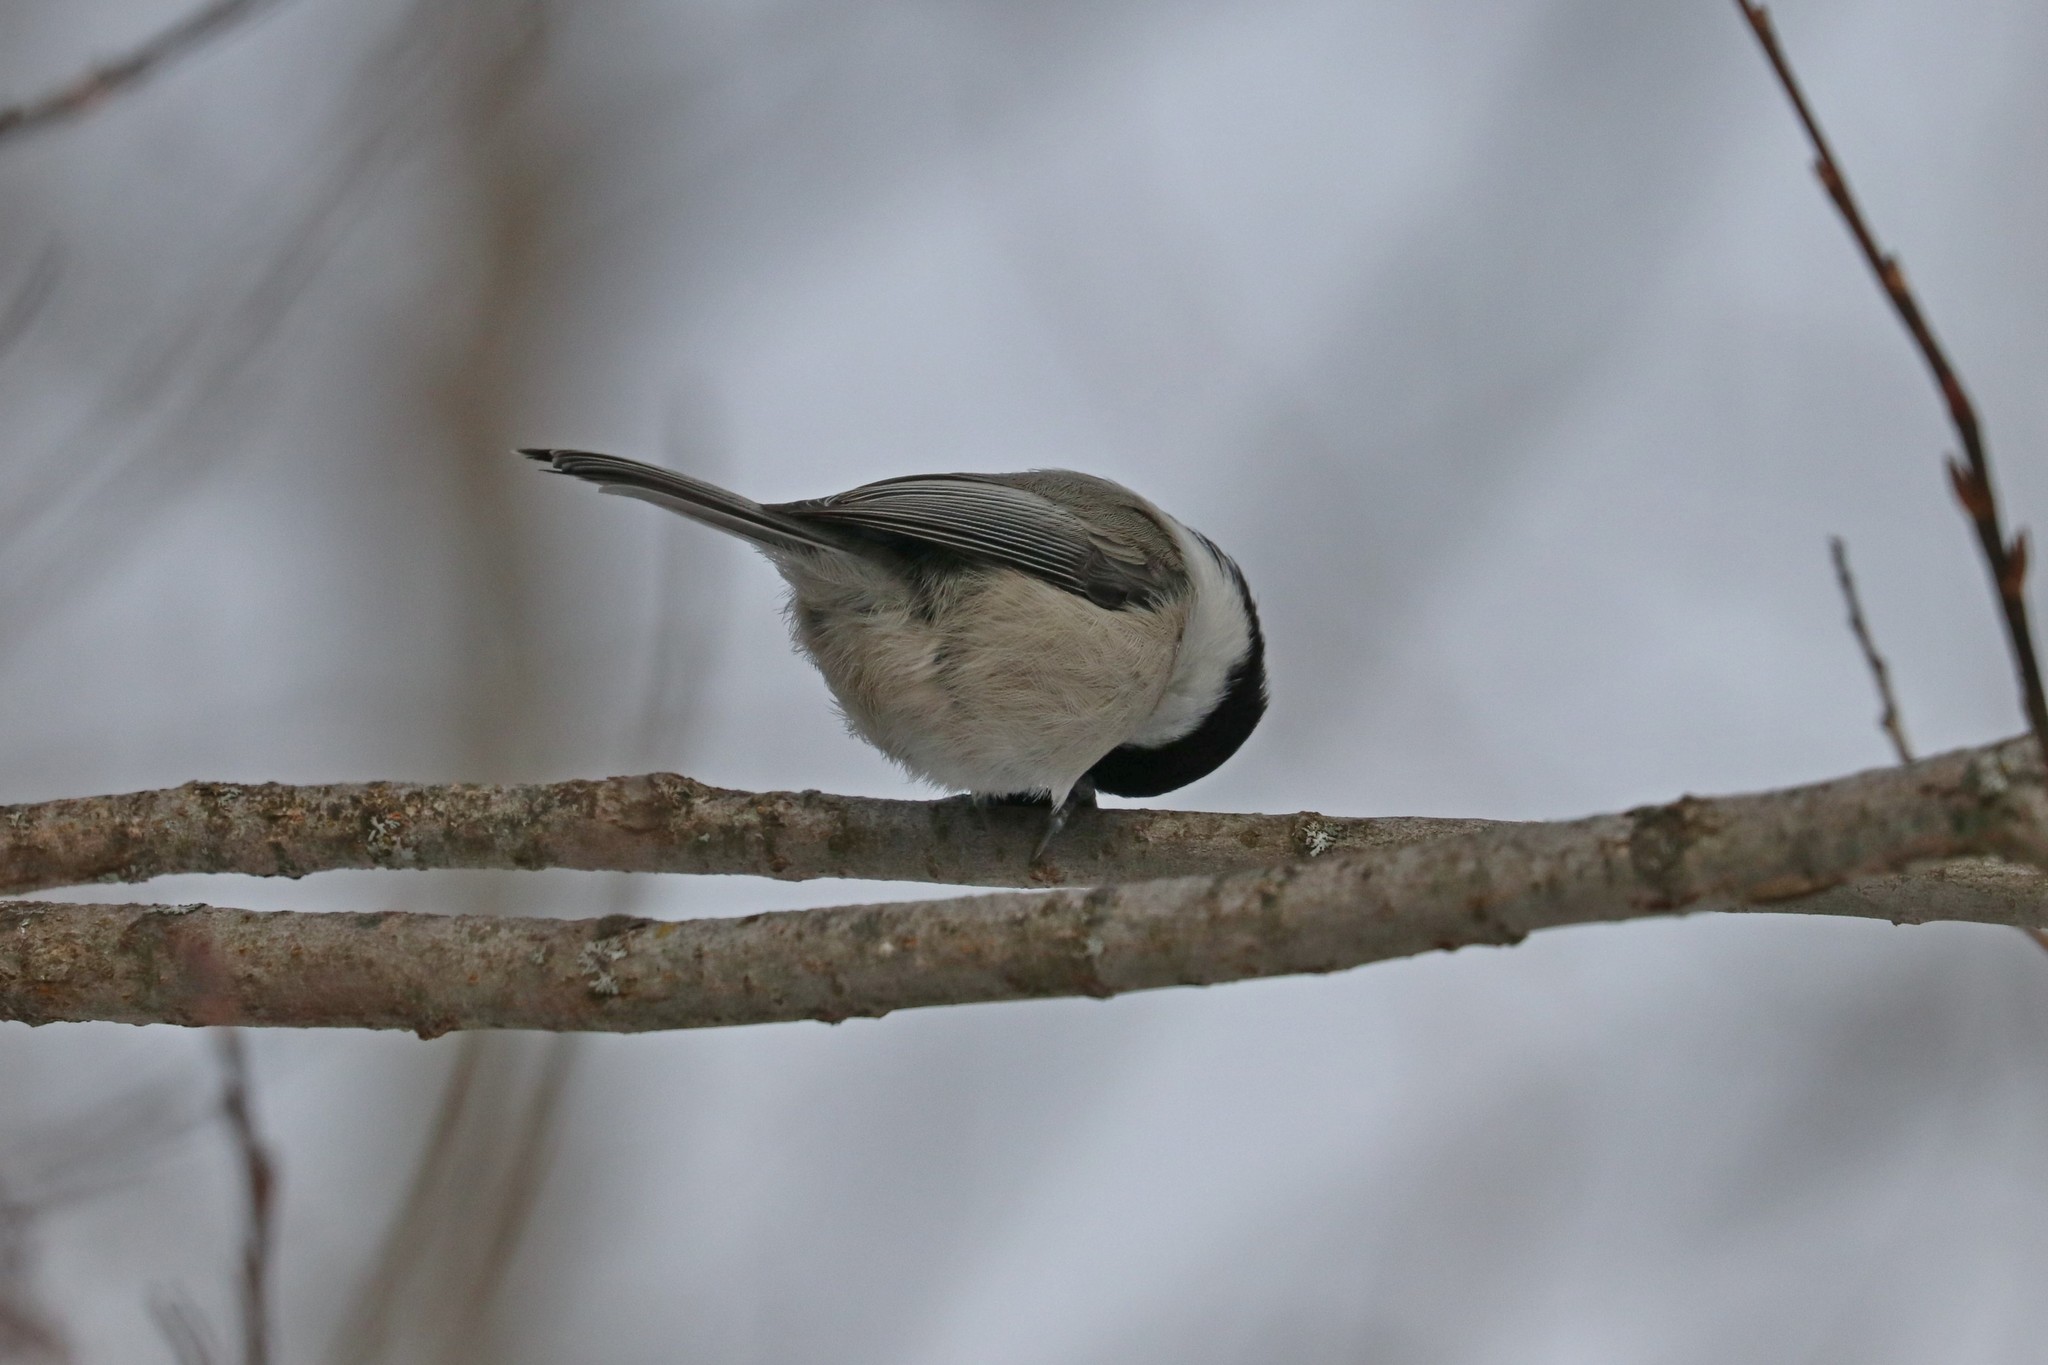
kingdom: Animalia
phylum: Chordata
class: Aves
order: Passeriformes
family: Paridae
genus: Poecile
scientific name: Poecile montanus
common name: Willow tit
